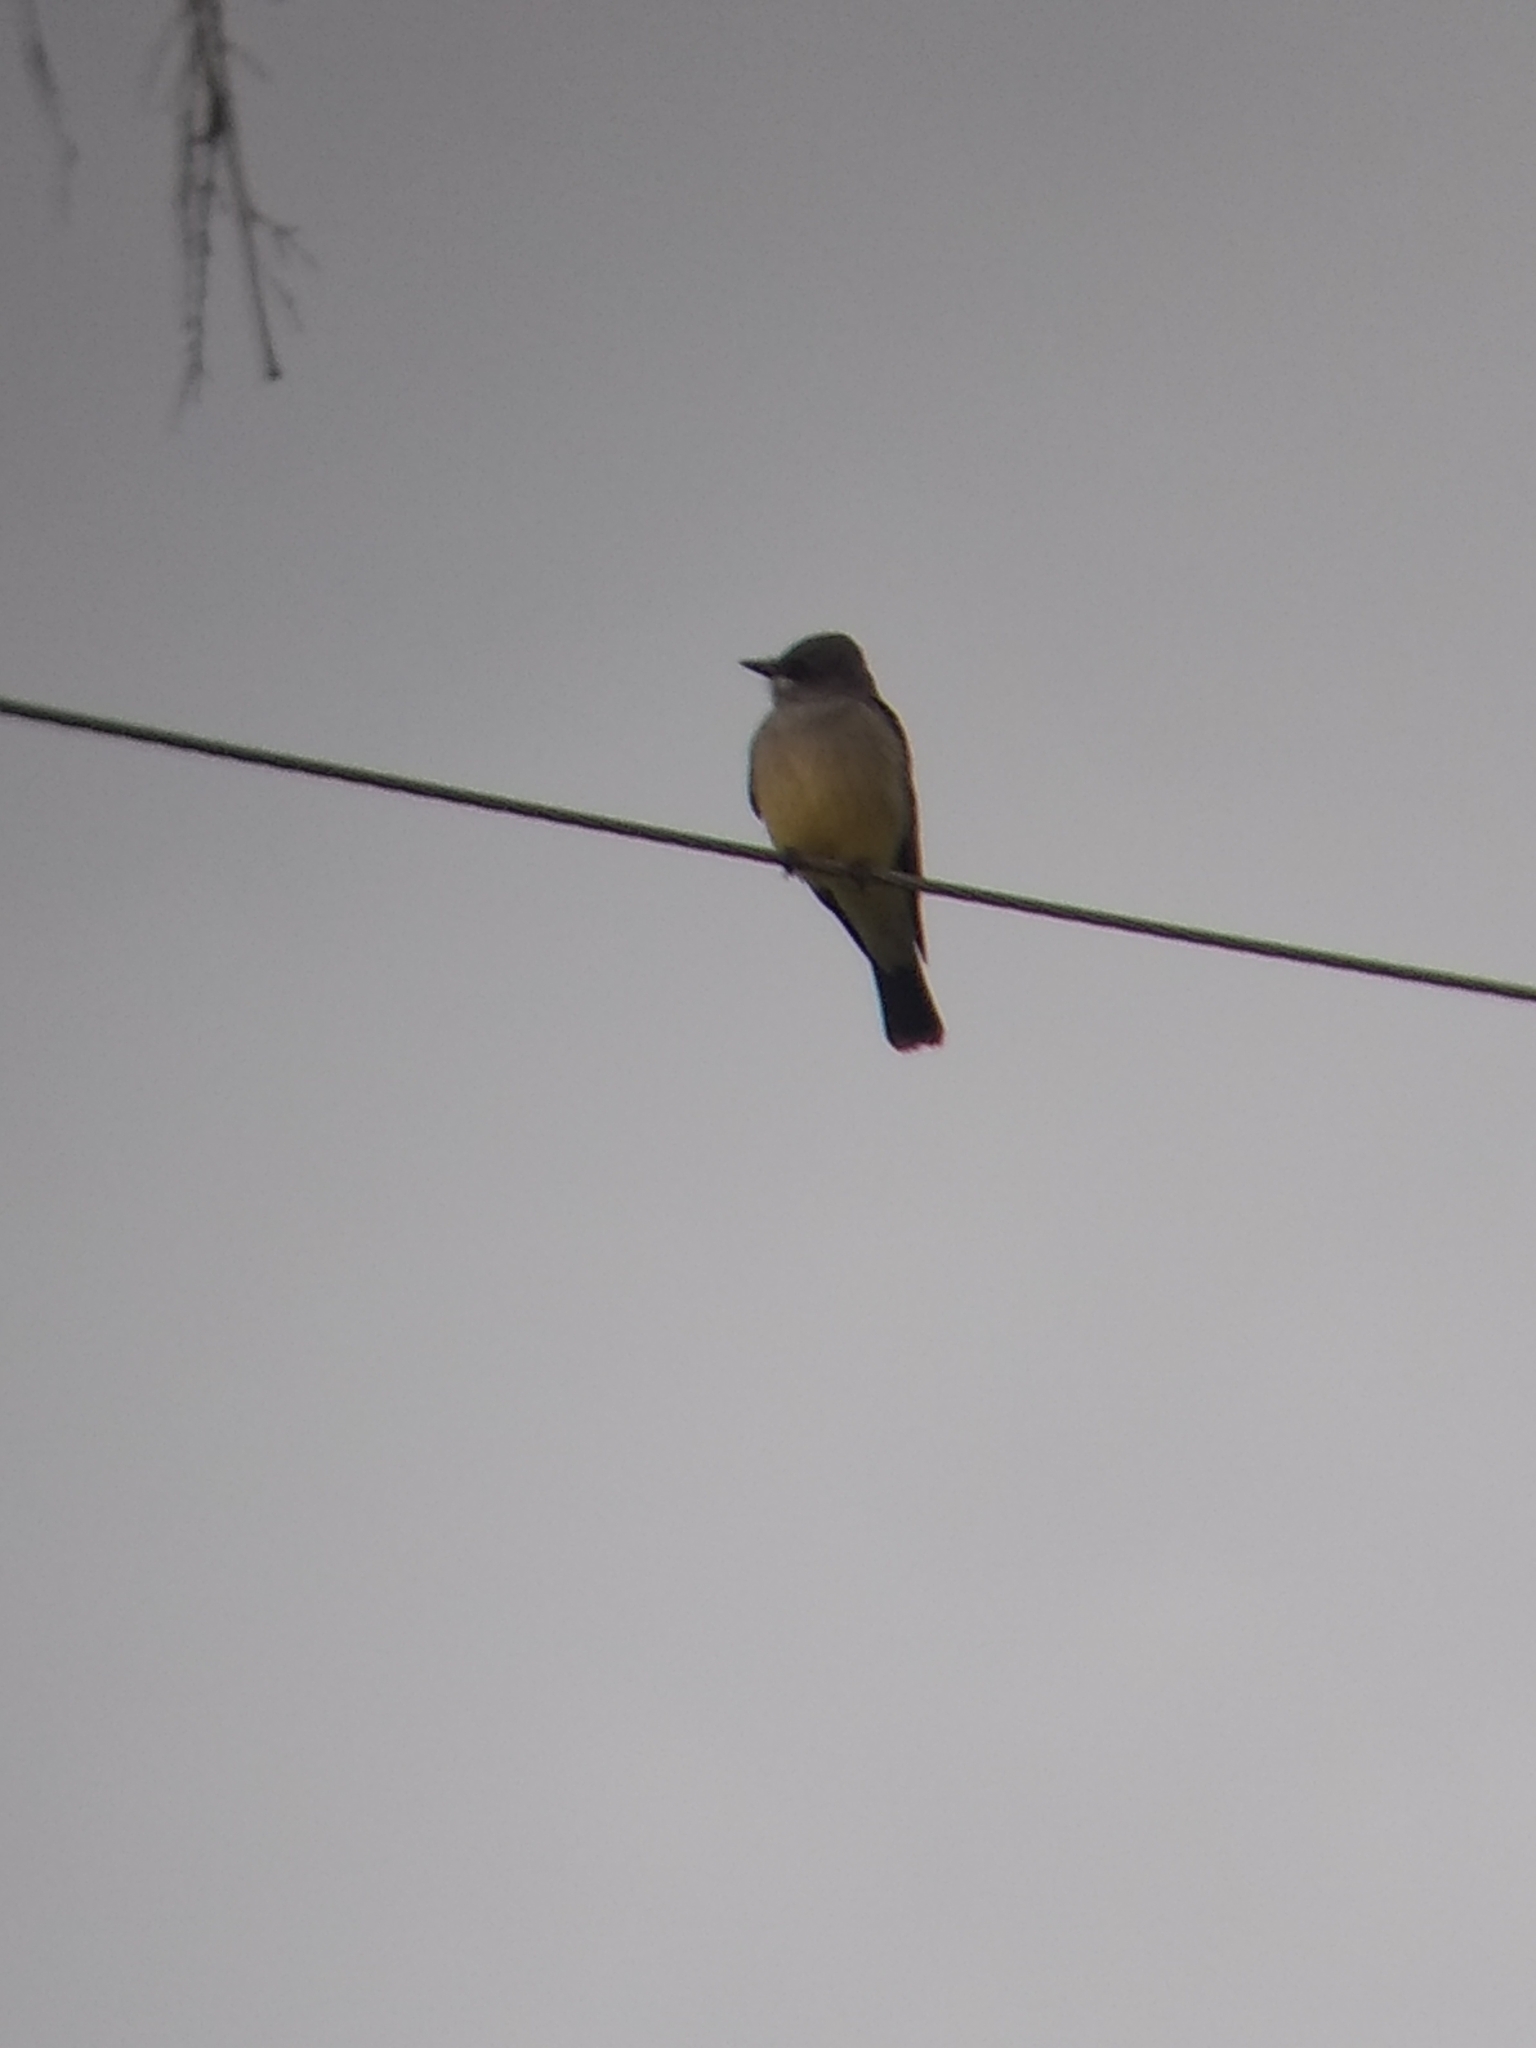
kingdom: Animalia
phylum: Chordata
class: Aves
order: Passeriformes
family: Tyrannidae
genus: Tyrannus
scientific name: Tyrannus vociferans
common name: Cassin's kingbird
